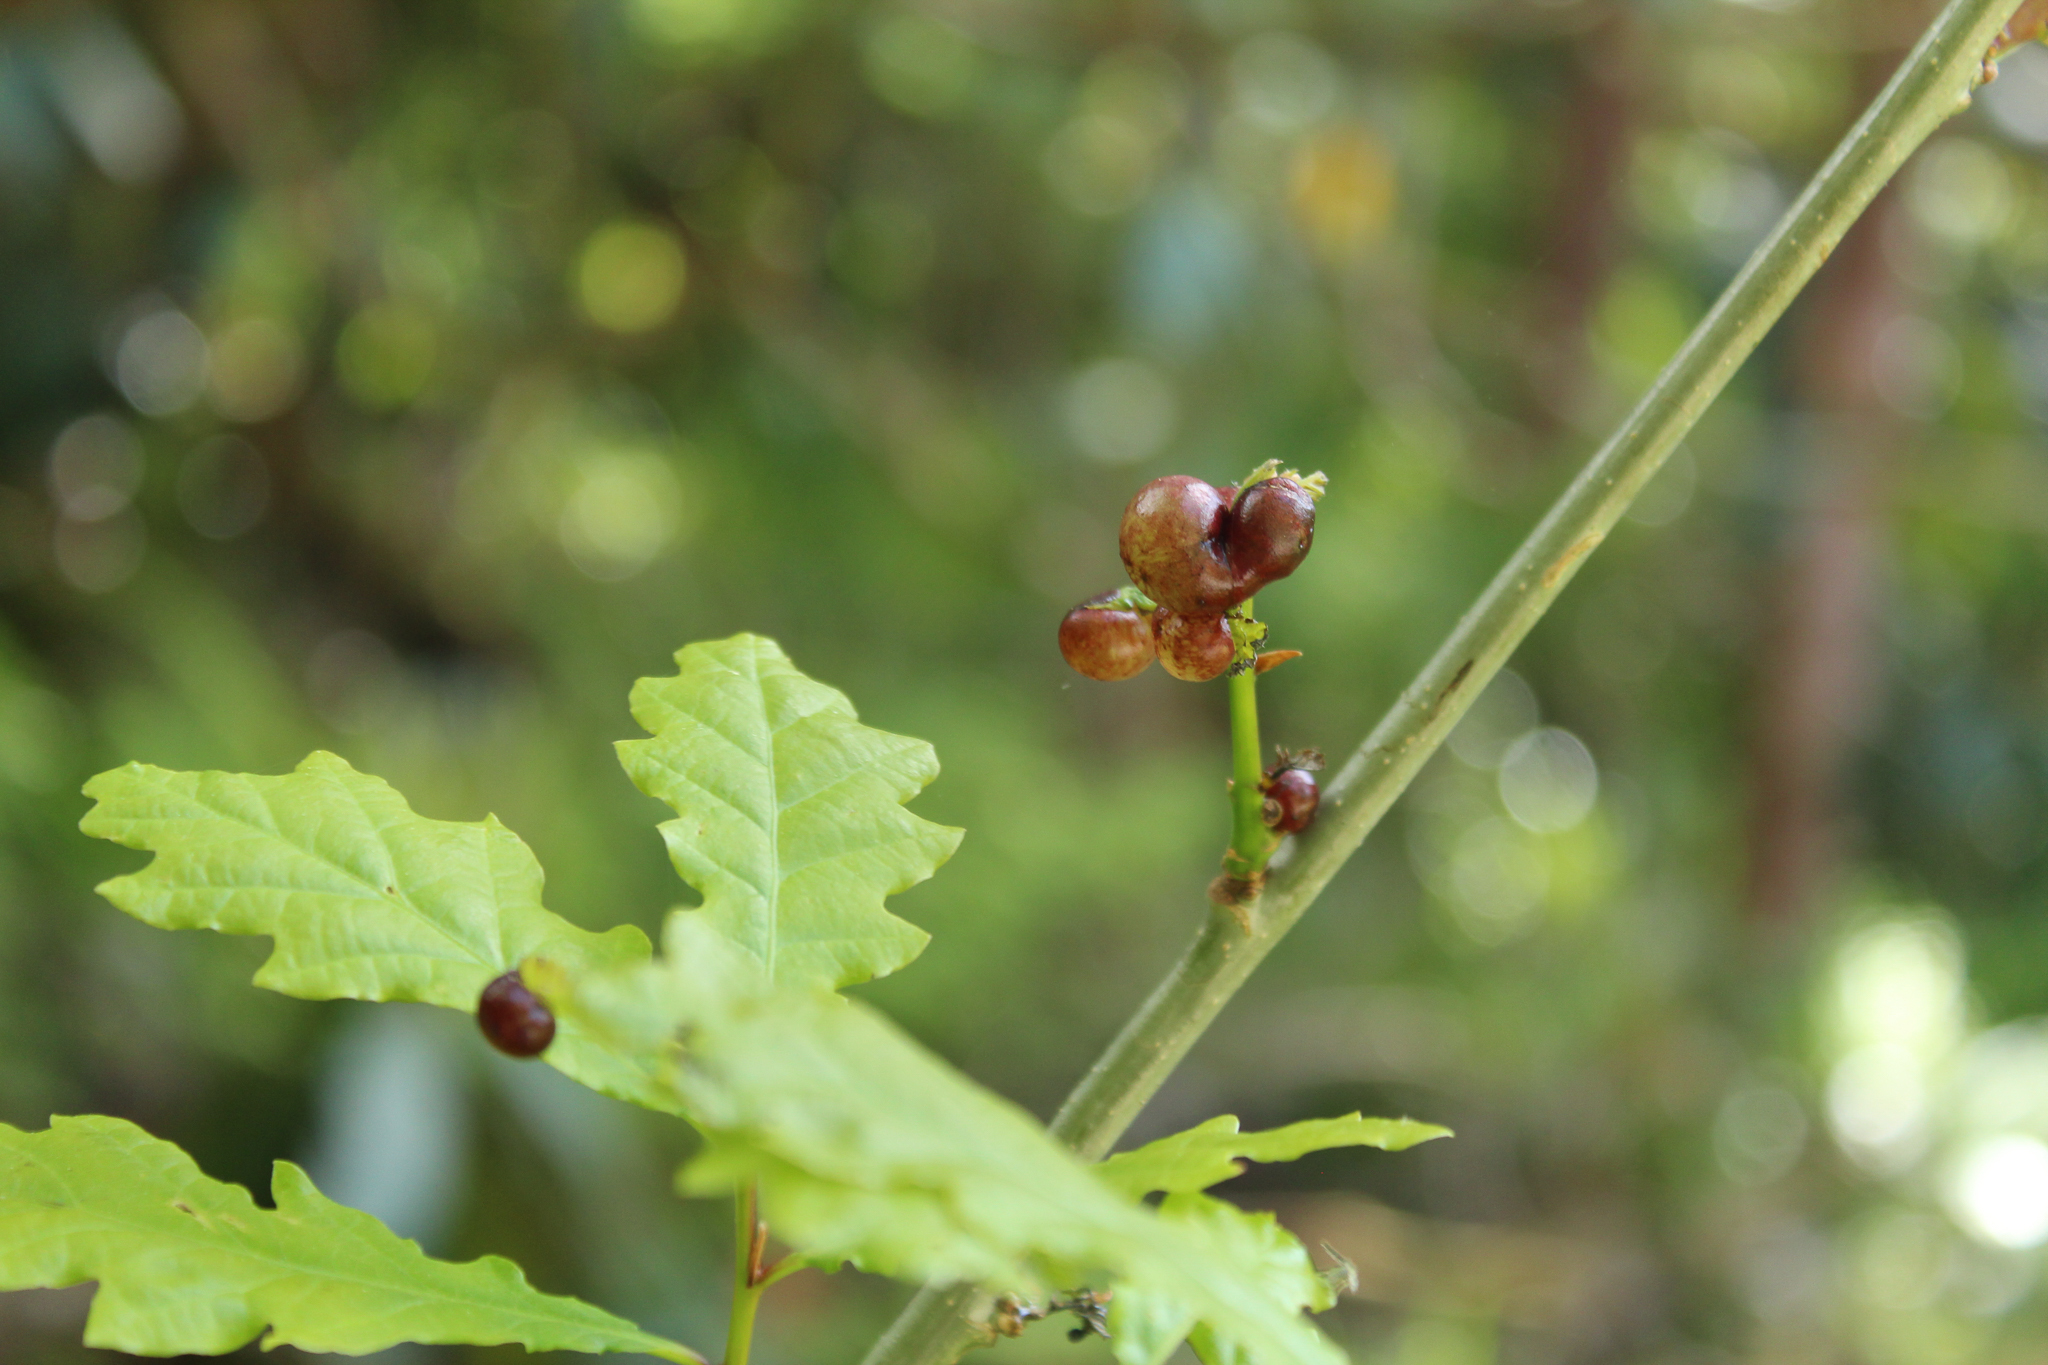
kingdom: Animalia
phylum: Arthropoda
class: Insecta
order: Hymenoptera
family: Cynipidae
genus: Neuroterus
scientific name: Neuroterus quercusbaccarum
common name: Common spangle gall
